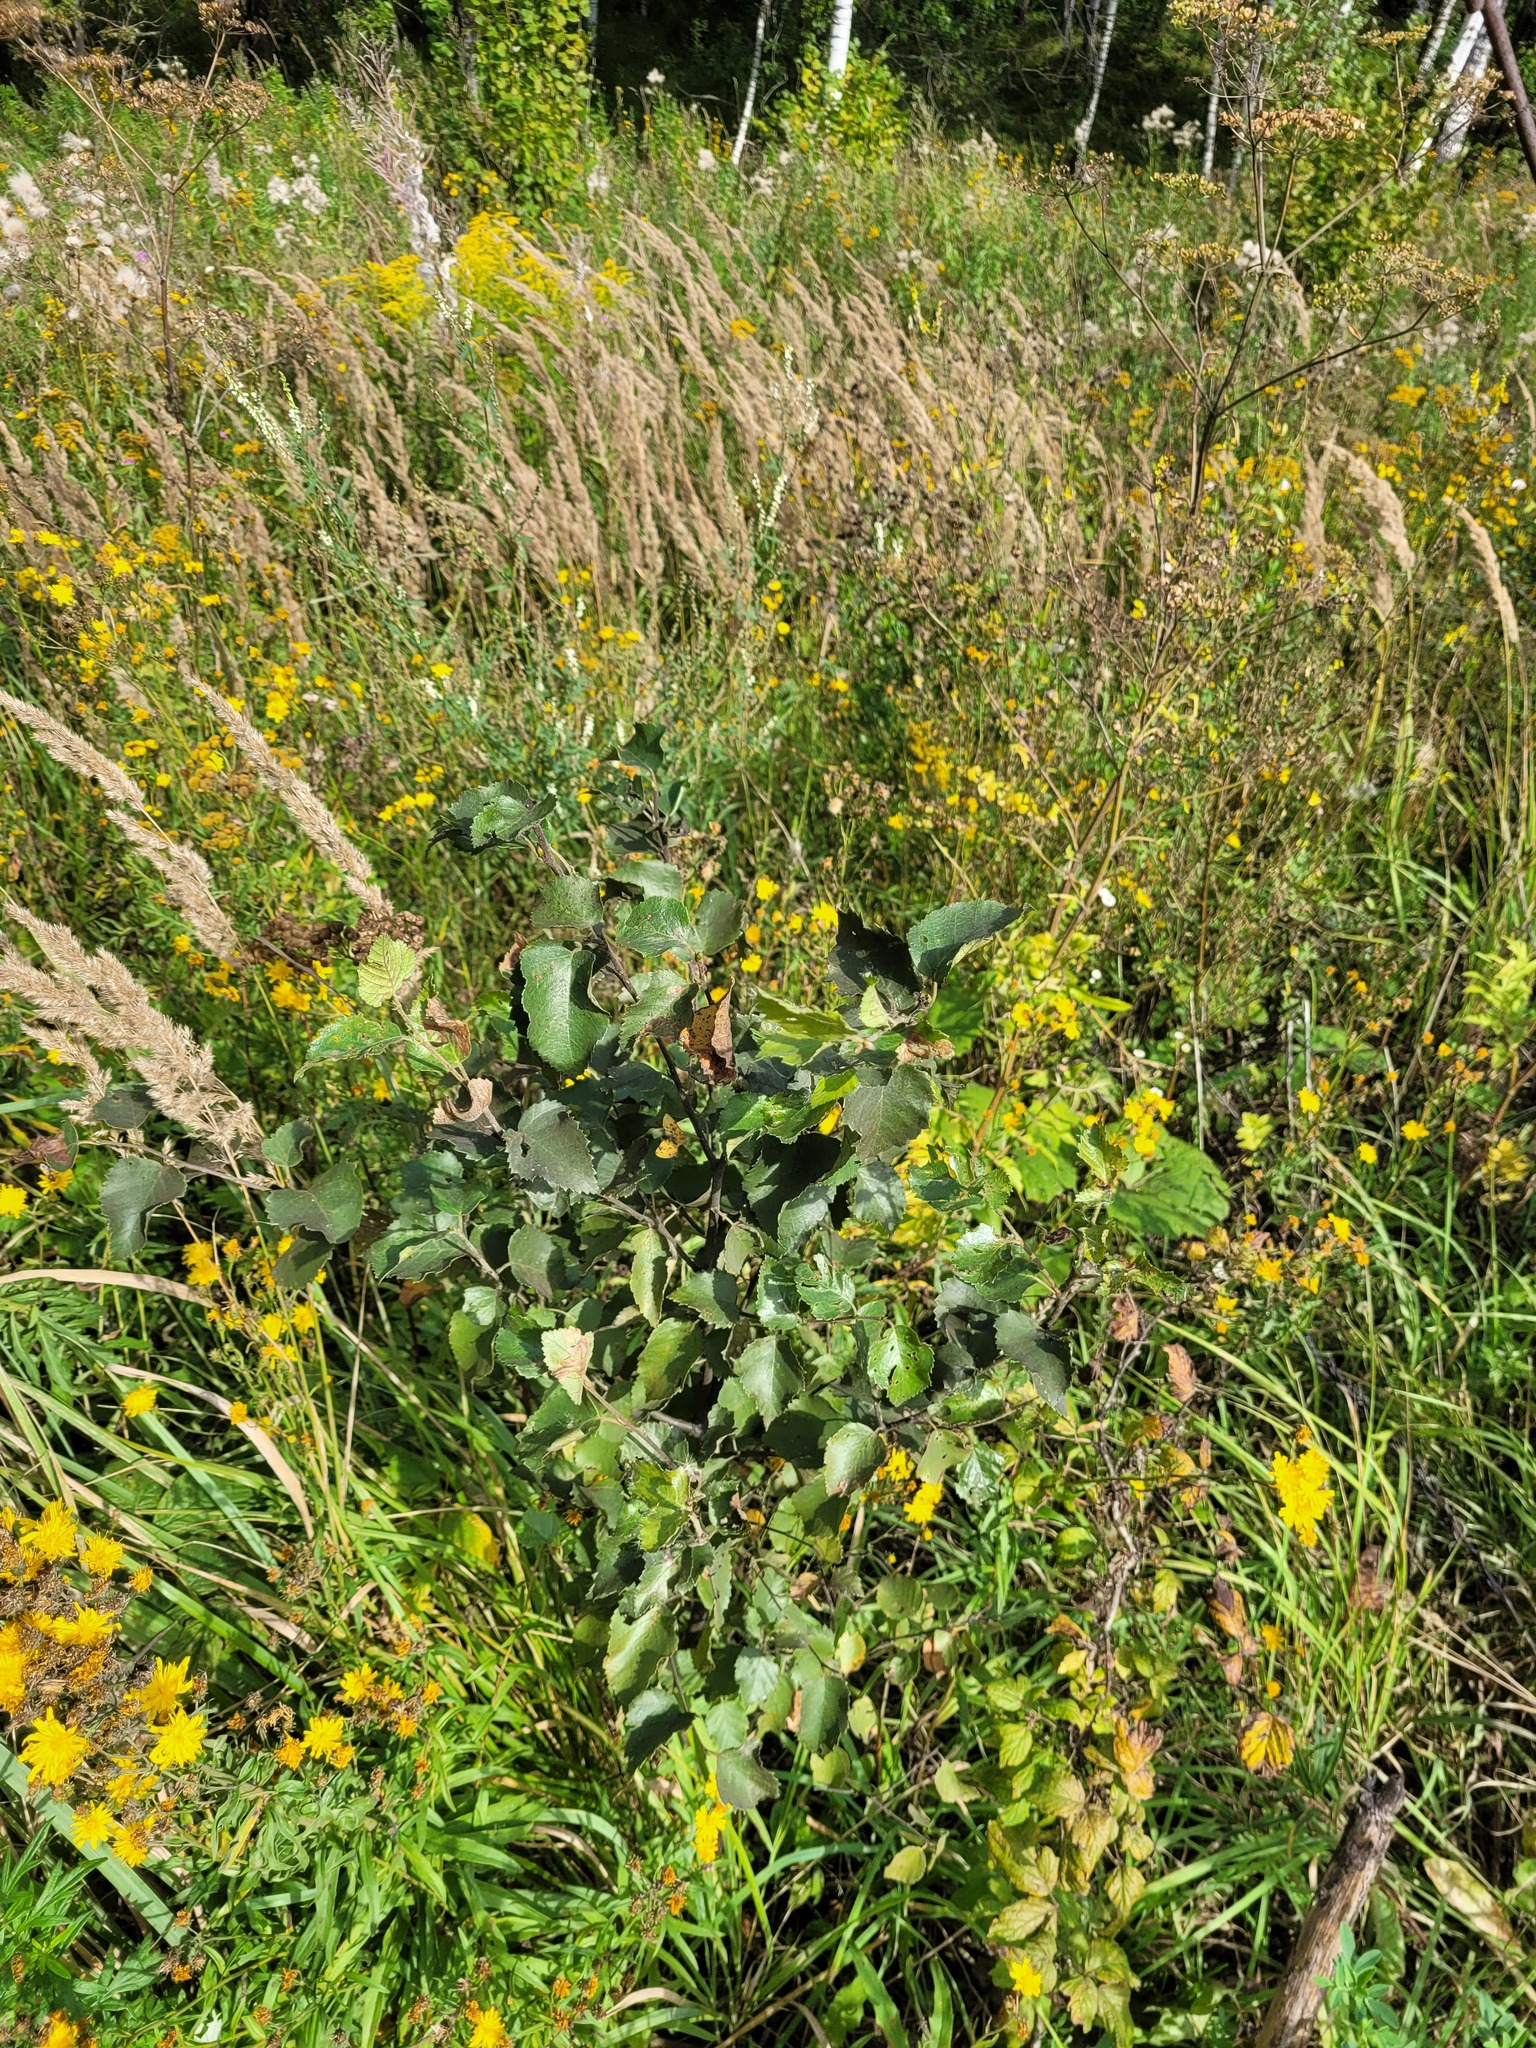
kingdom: Plantae
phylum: Tracheophyta
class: Magnoliopsida
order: Fagales
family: Betulaceae
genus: Betula
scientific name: Betula pubescens
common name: Downy birch
